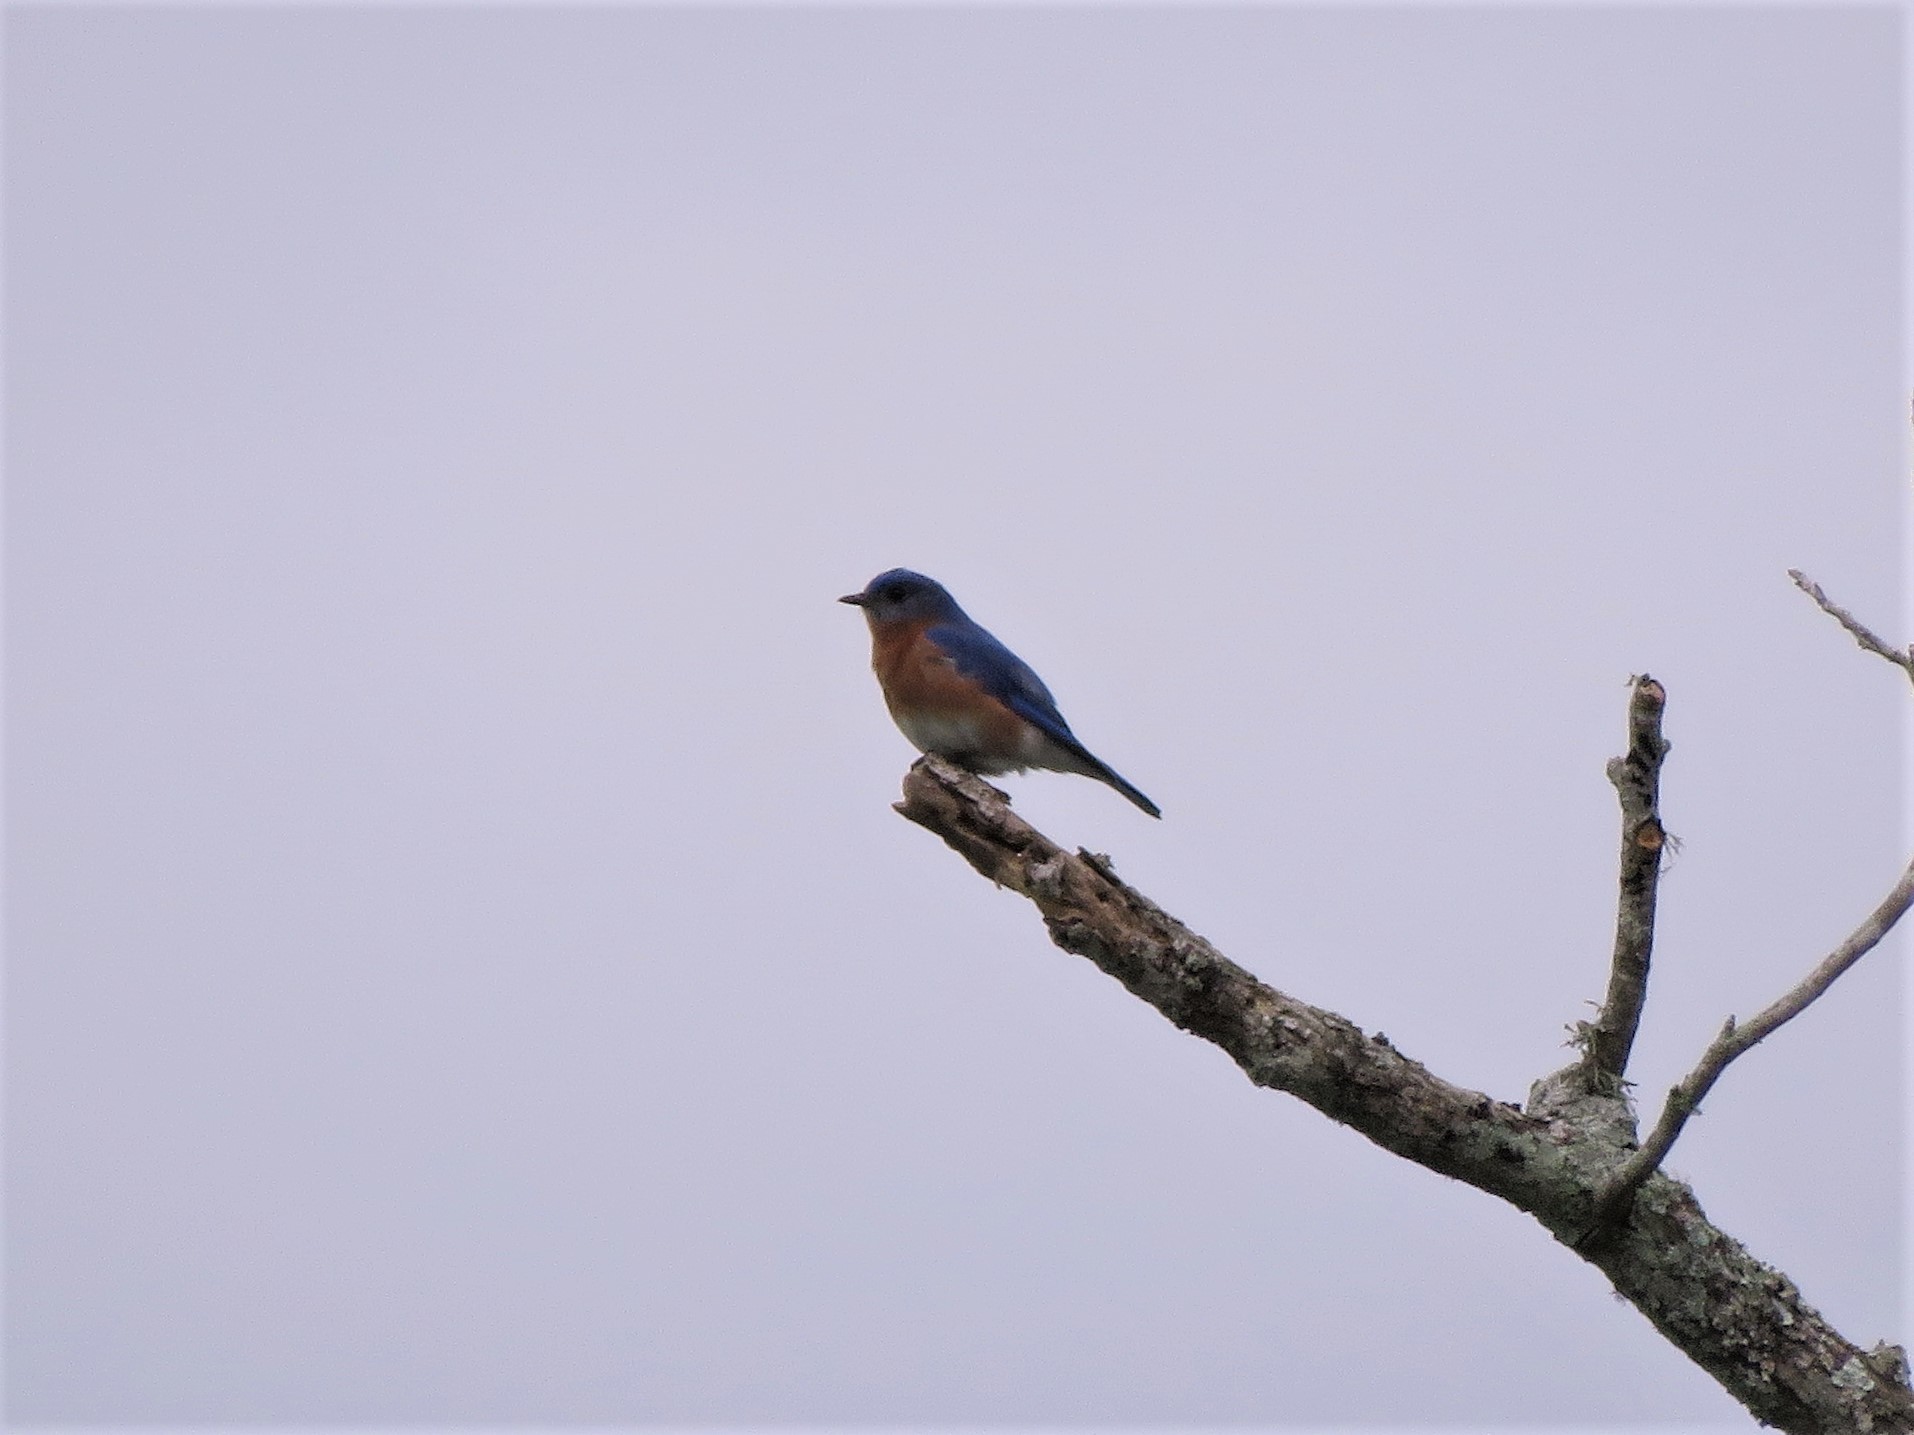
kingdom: Animalia
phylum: Chordata
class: Aves
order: Passeriformes
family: Turdidae
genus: Sialia
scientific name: Sialia sialis
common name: Eastern bluebird
